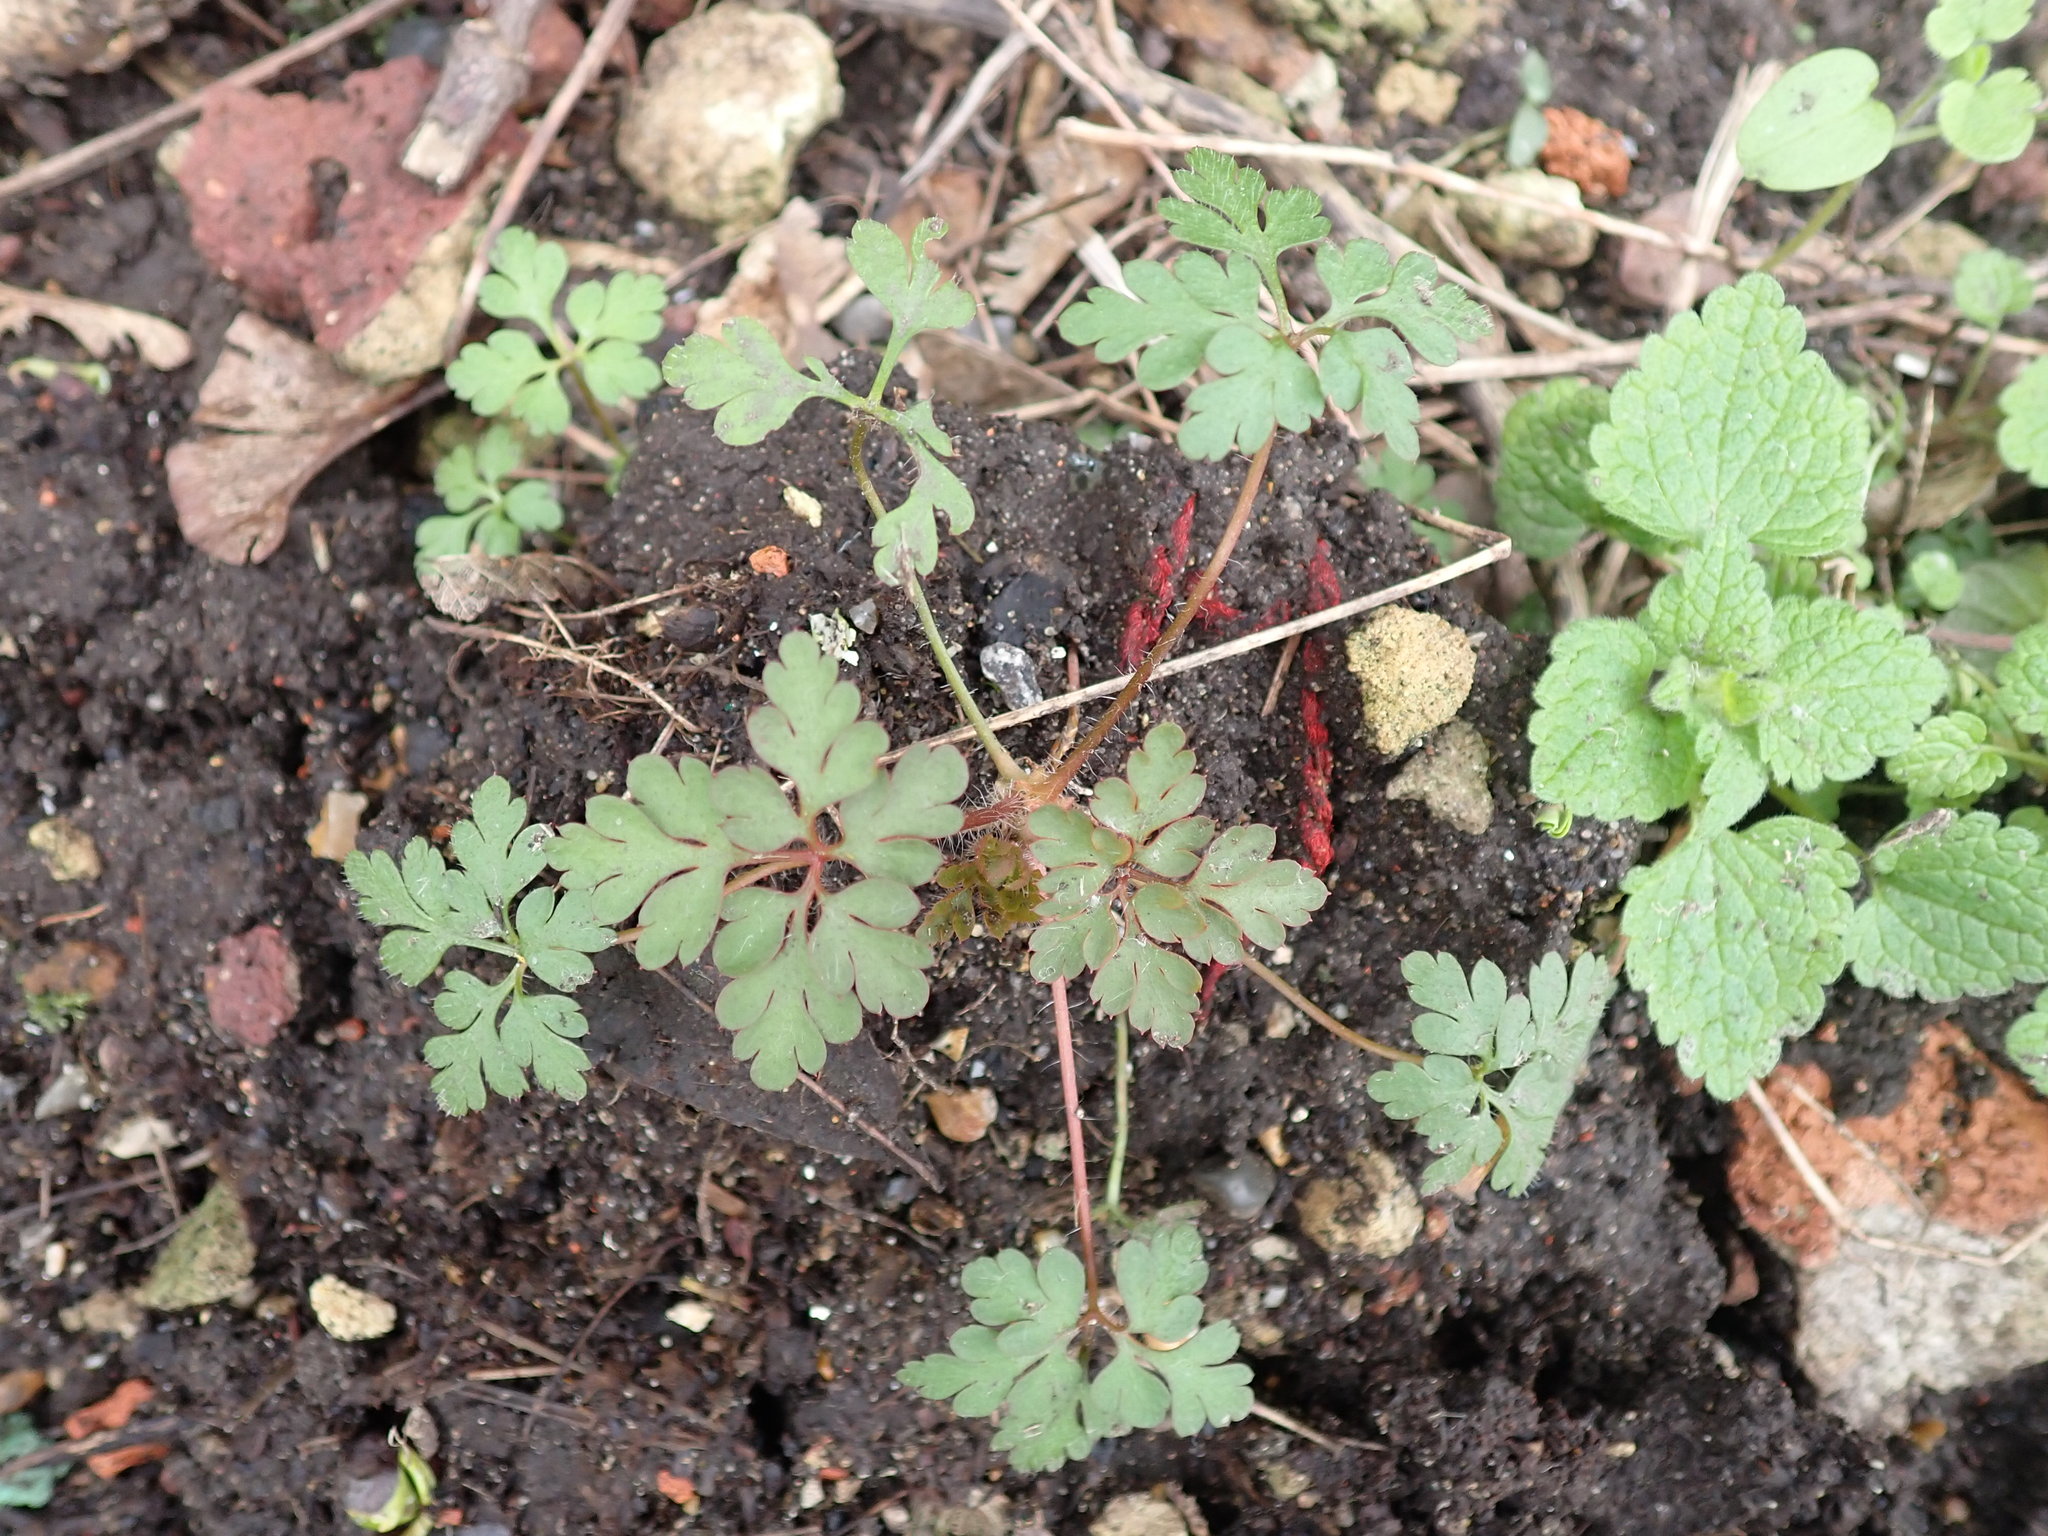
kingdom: Plantae
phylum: Tracheophyta
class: Magnoliopsida
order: Geraniales
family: Geraniaceae
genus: Geranium
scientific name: Geranium robertianum
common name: Herb-robert
